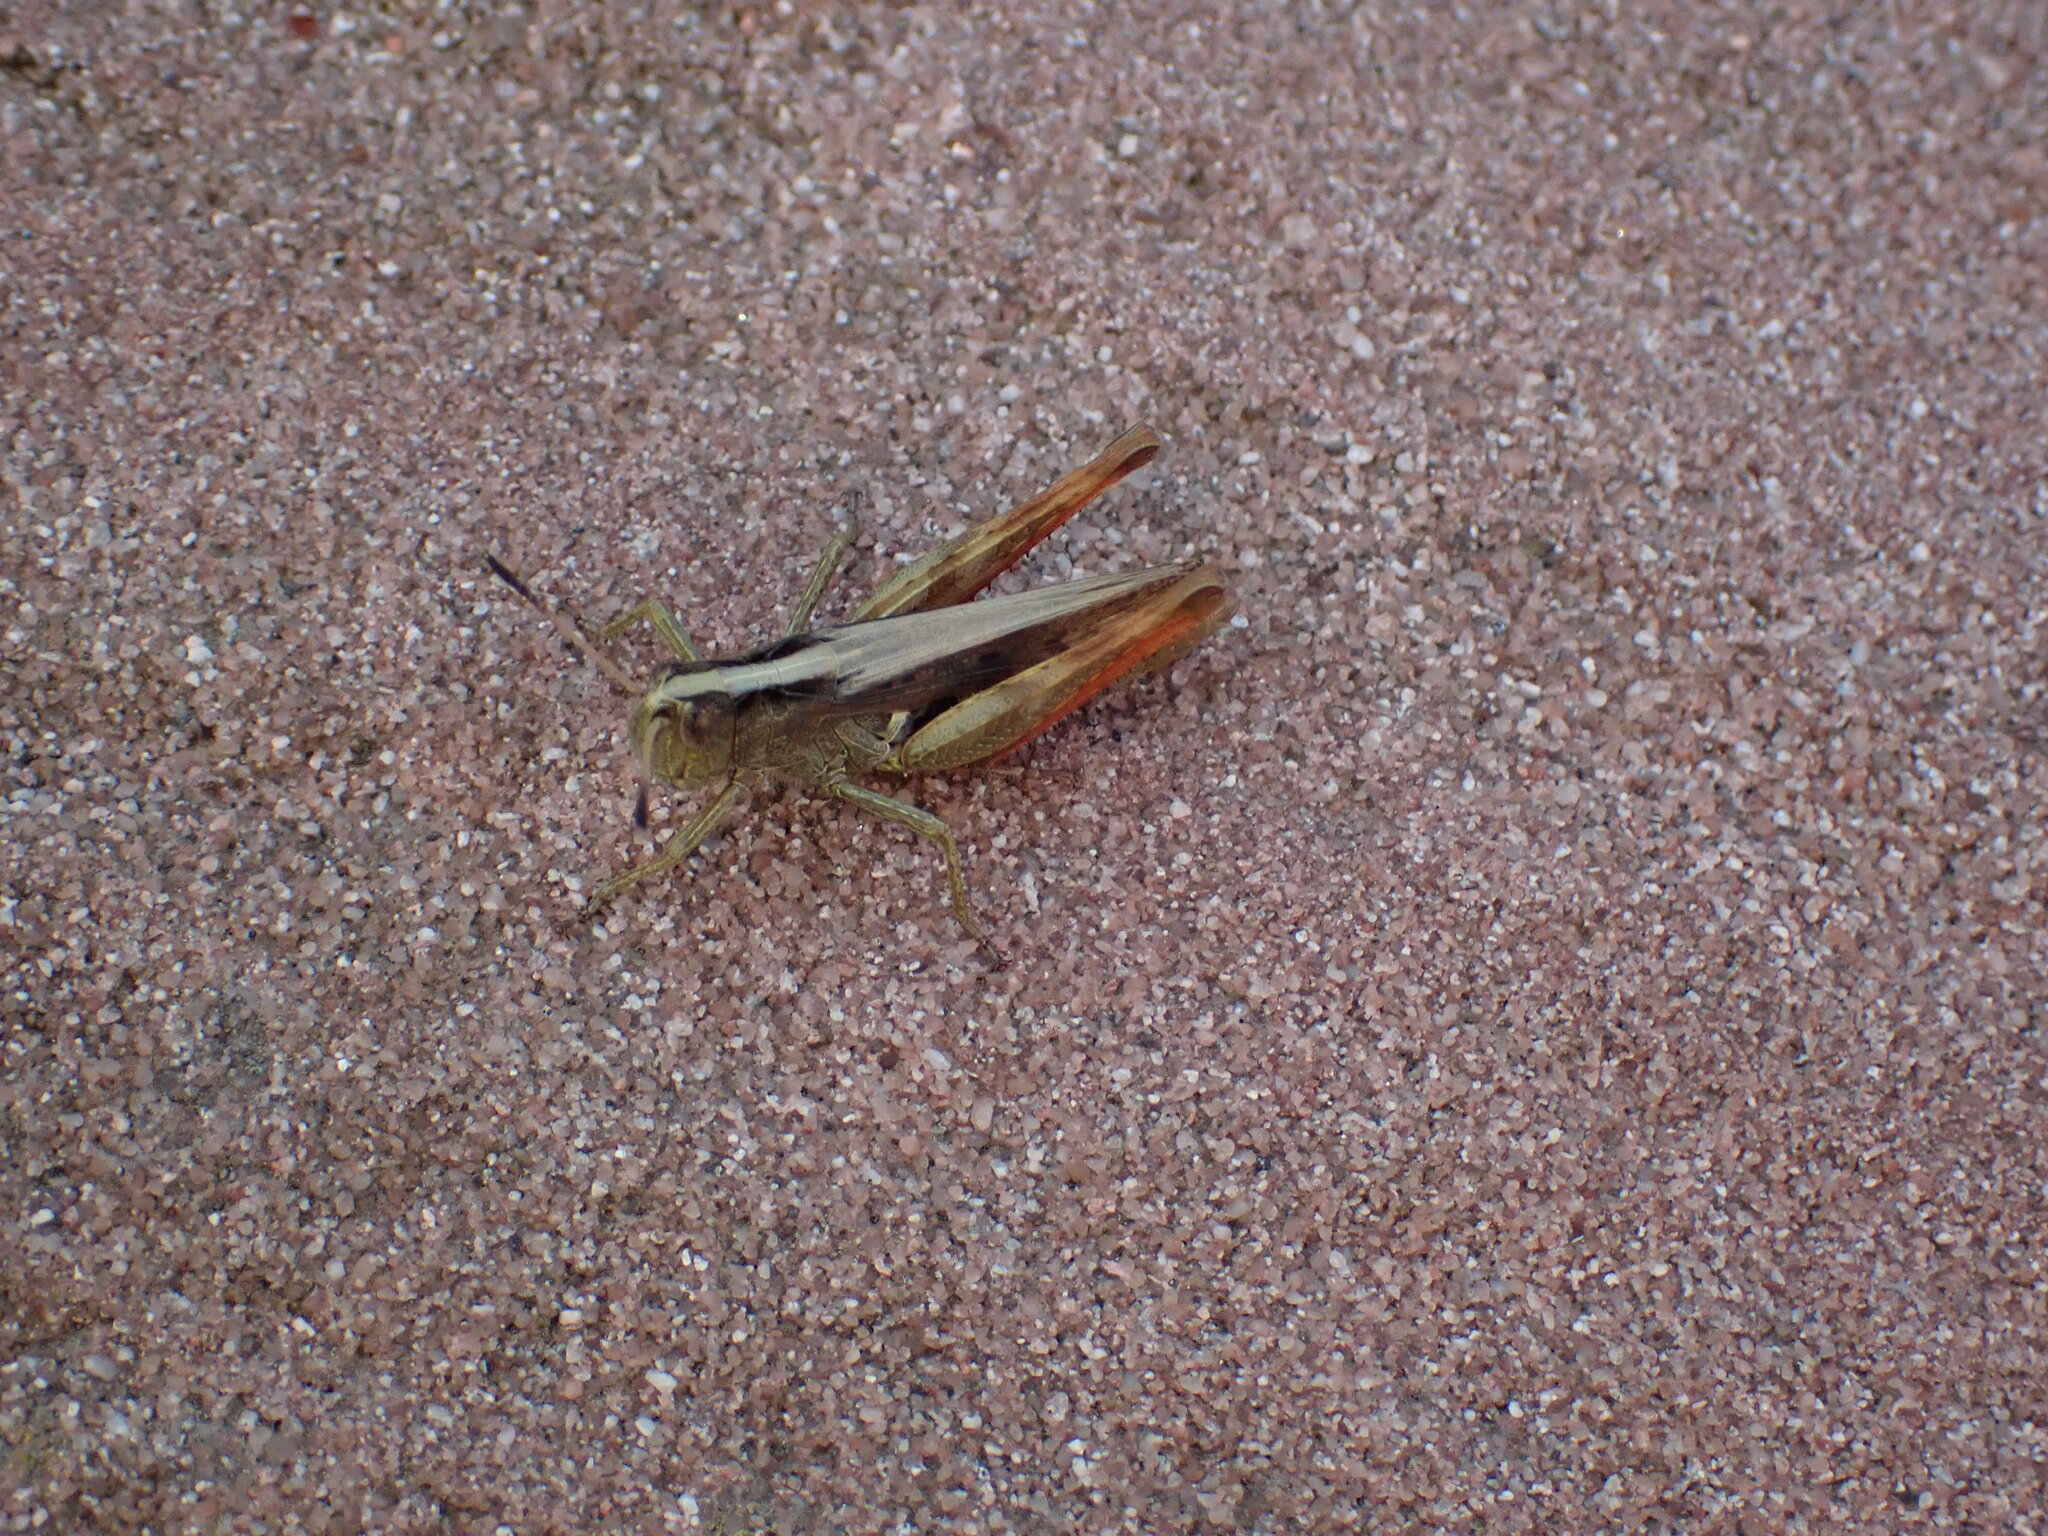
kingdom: Animalia
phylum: Arthropoda
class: Insecta
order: Orthoptera
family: Acrididae
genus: Gomphocerippus
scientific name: Gomphocerippus rufus
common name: Rufous grasshopper
